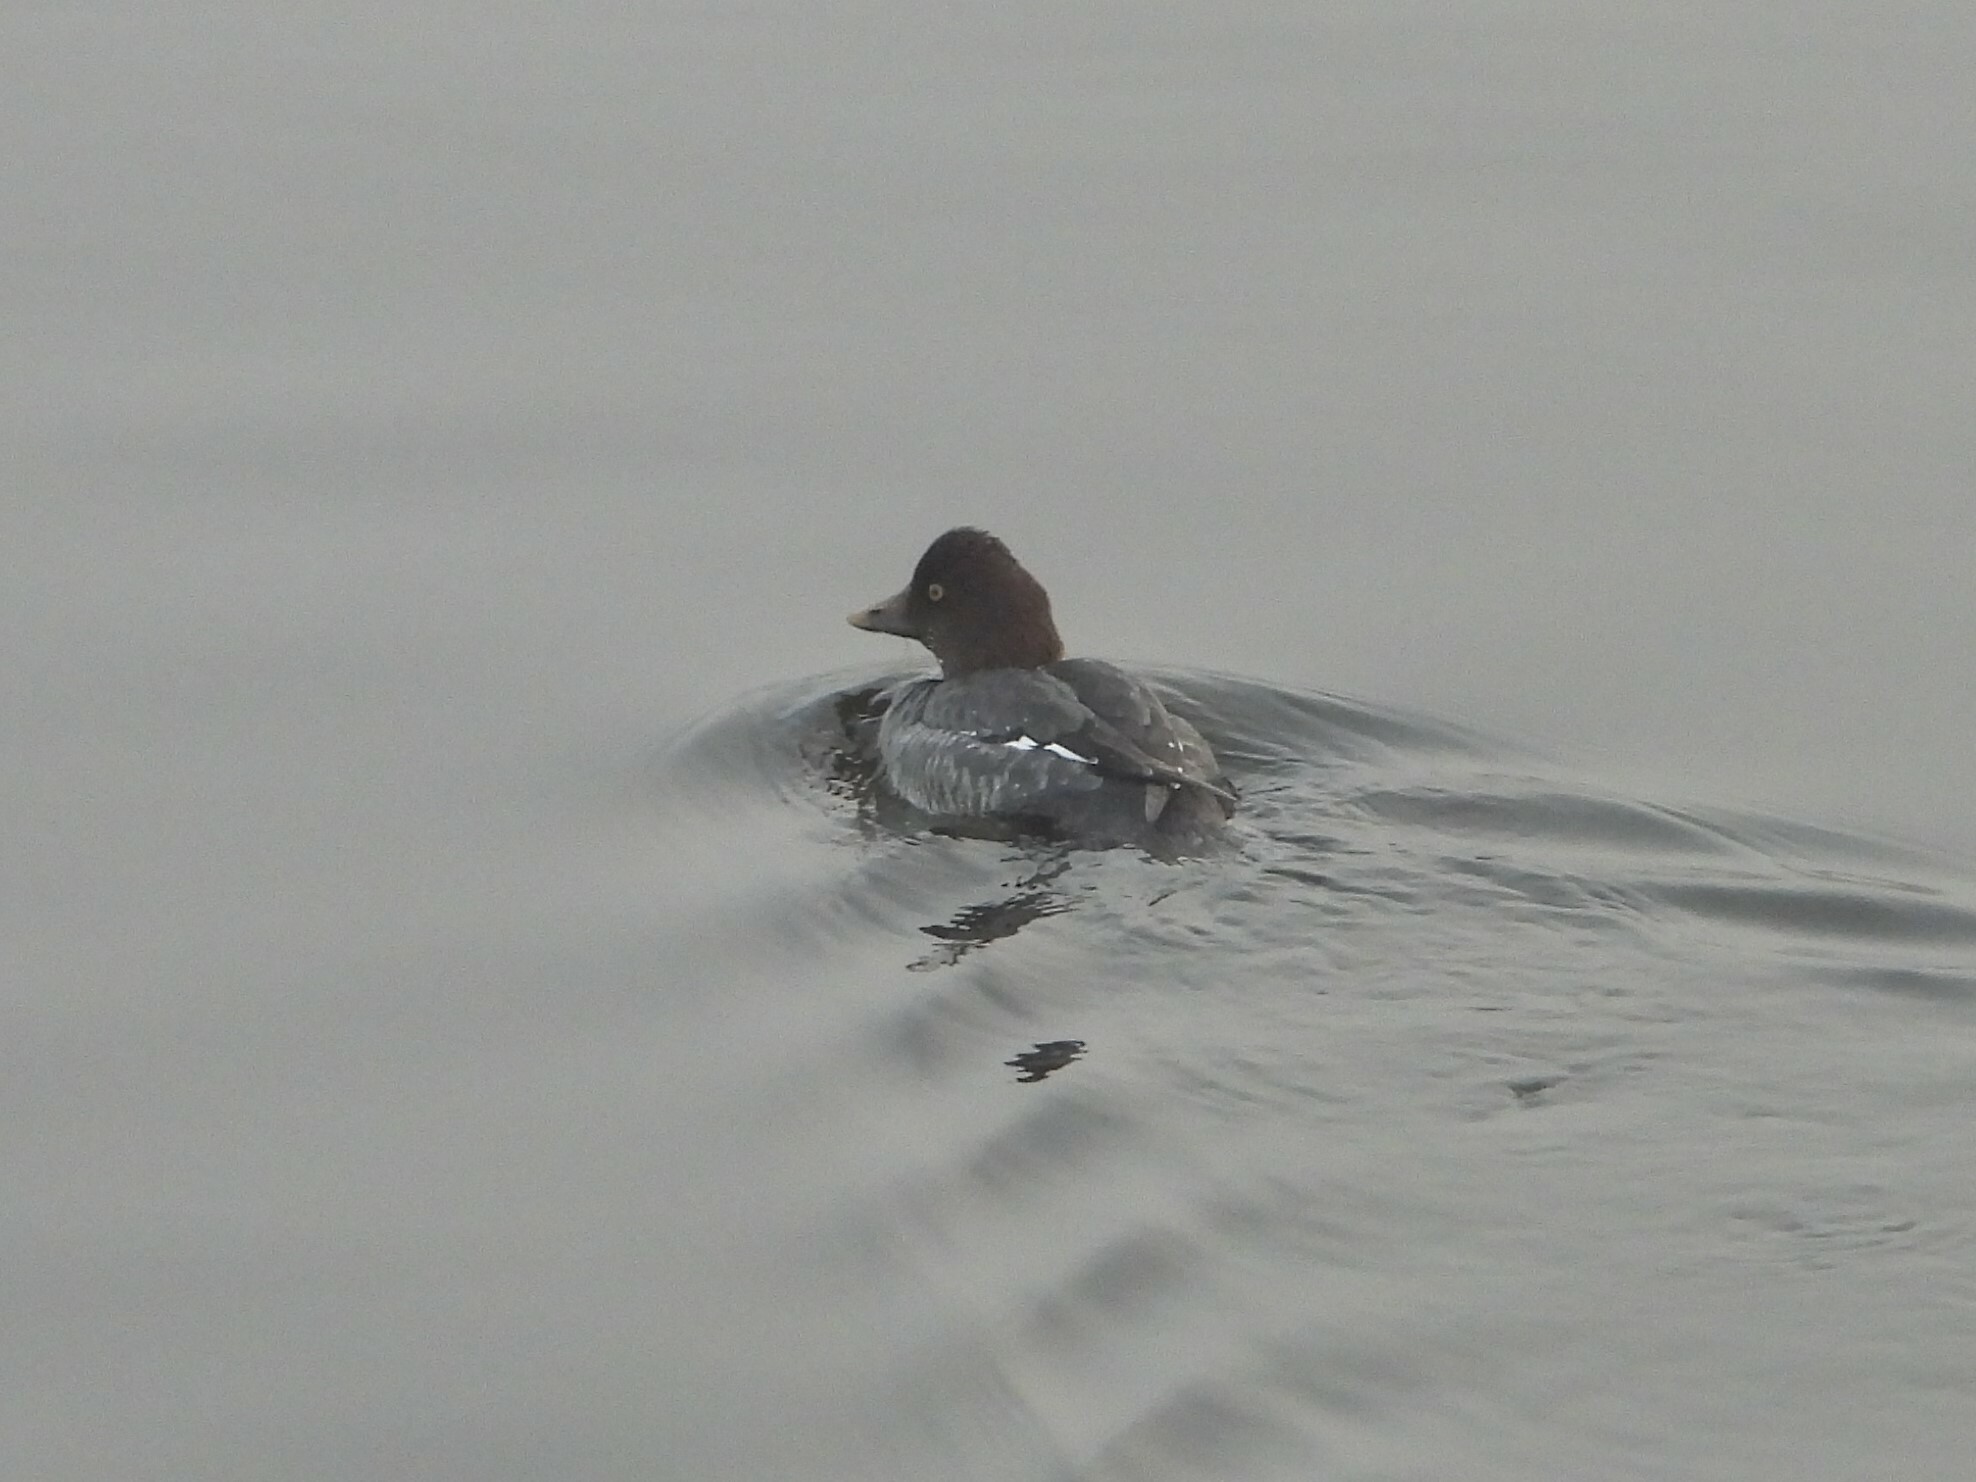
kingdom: Animalia
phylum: Chordata
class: Aves
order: Anseriformes
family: Anatidae
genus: Bucephala
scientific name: Bucephala clangula
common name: Common goldeneye
